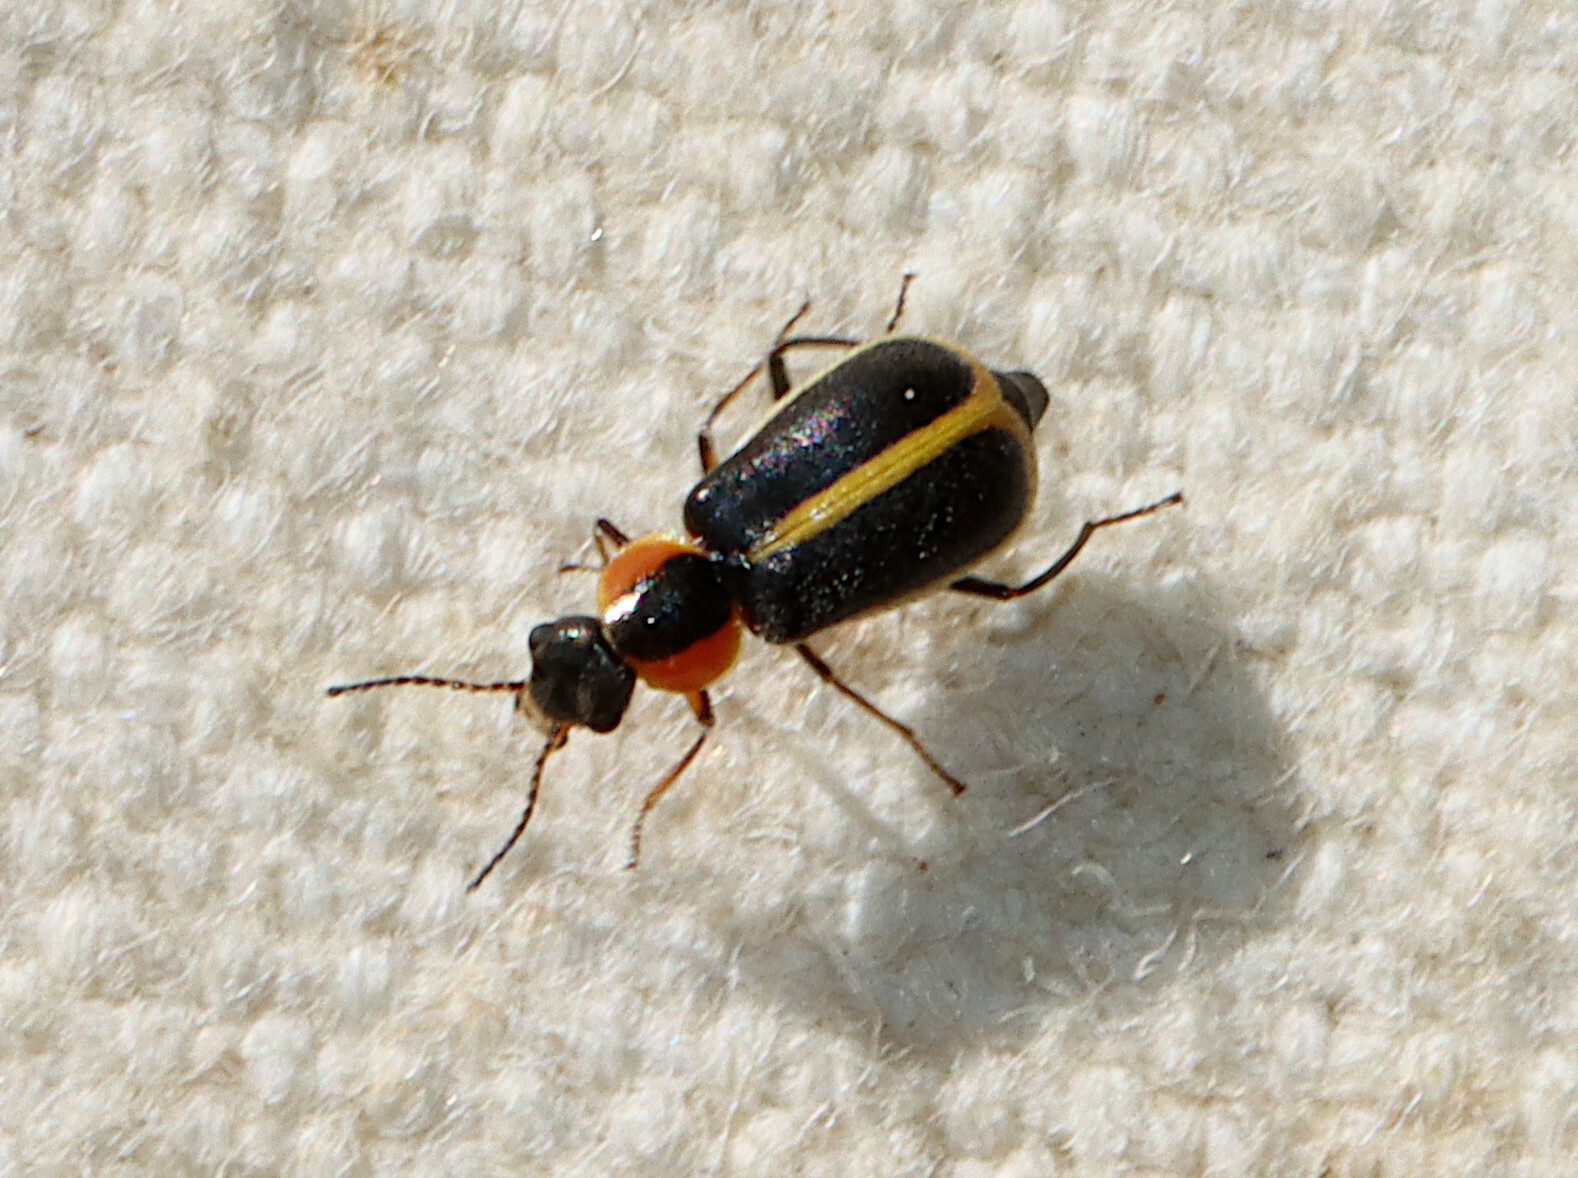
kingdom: Animalia
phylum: Arthropoda
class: Insecta
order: Coleoptera
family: Malachiidae
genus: Attalus
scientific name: Attalus
